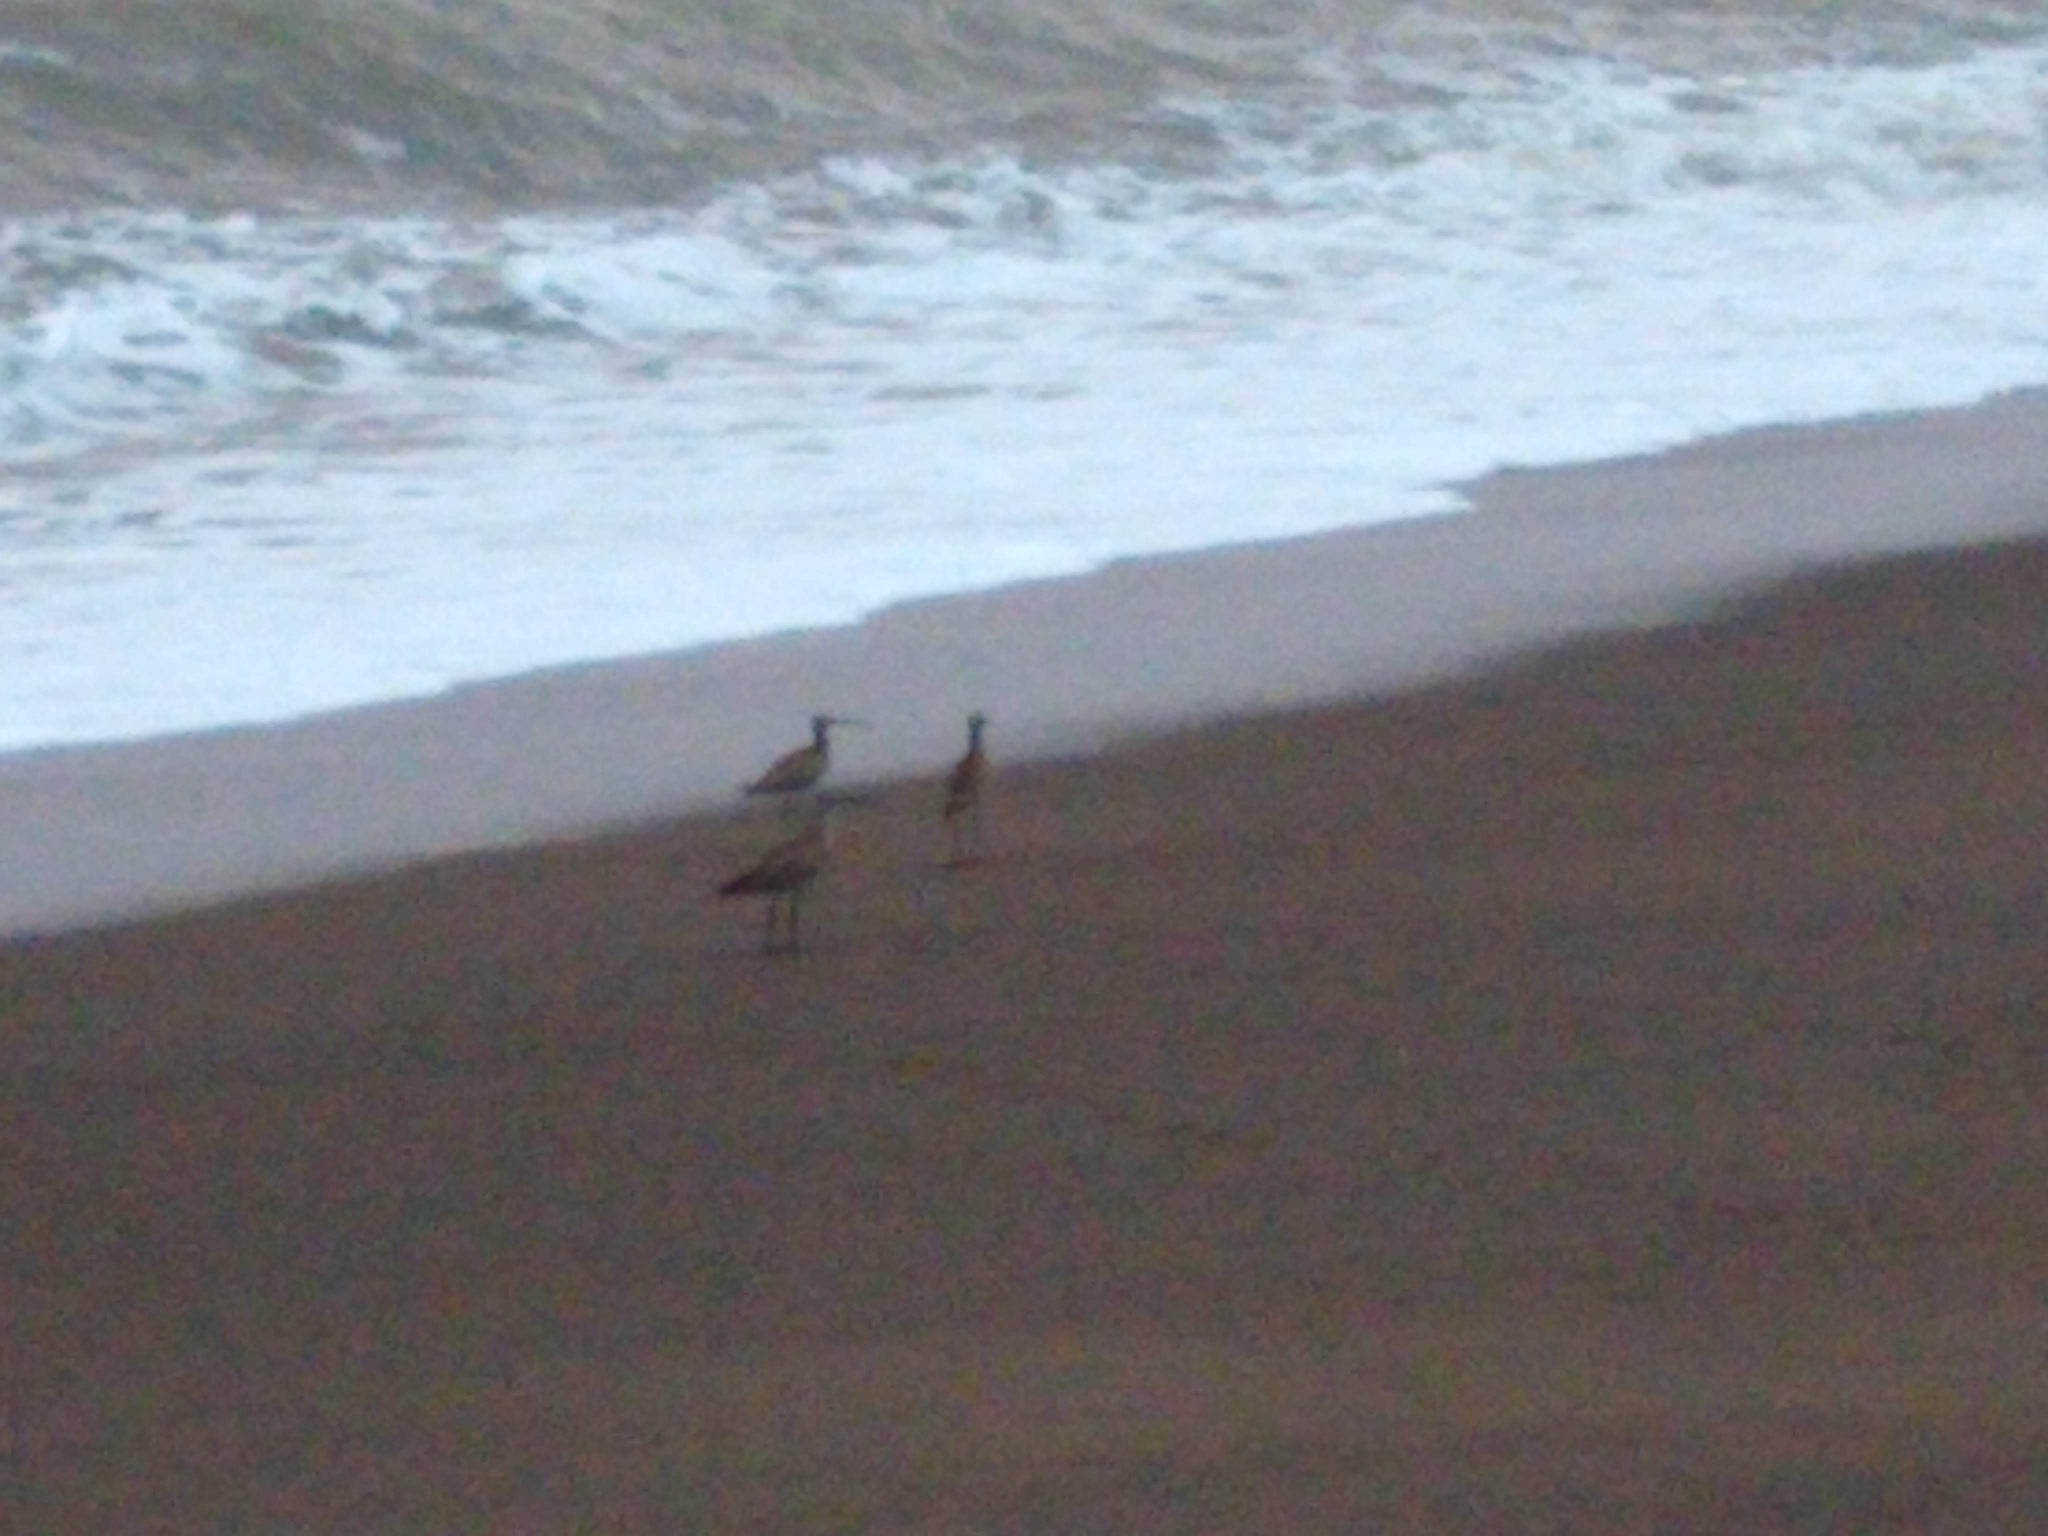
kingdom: Animalia
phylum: Chordata
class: Aves
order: Charadriiformes
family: Scolopacidae
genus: Numenius
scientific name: Numenius phaeopus
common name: Whimbrel
